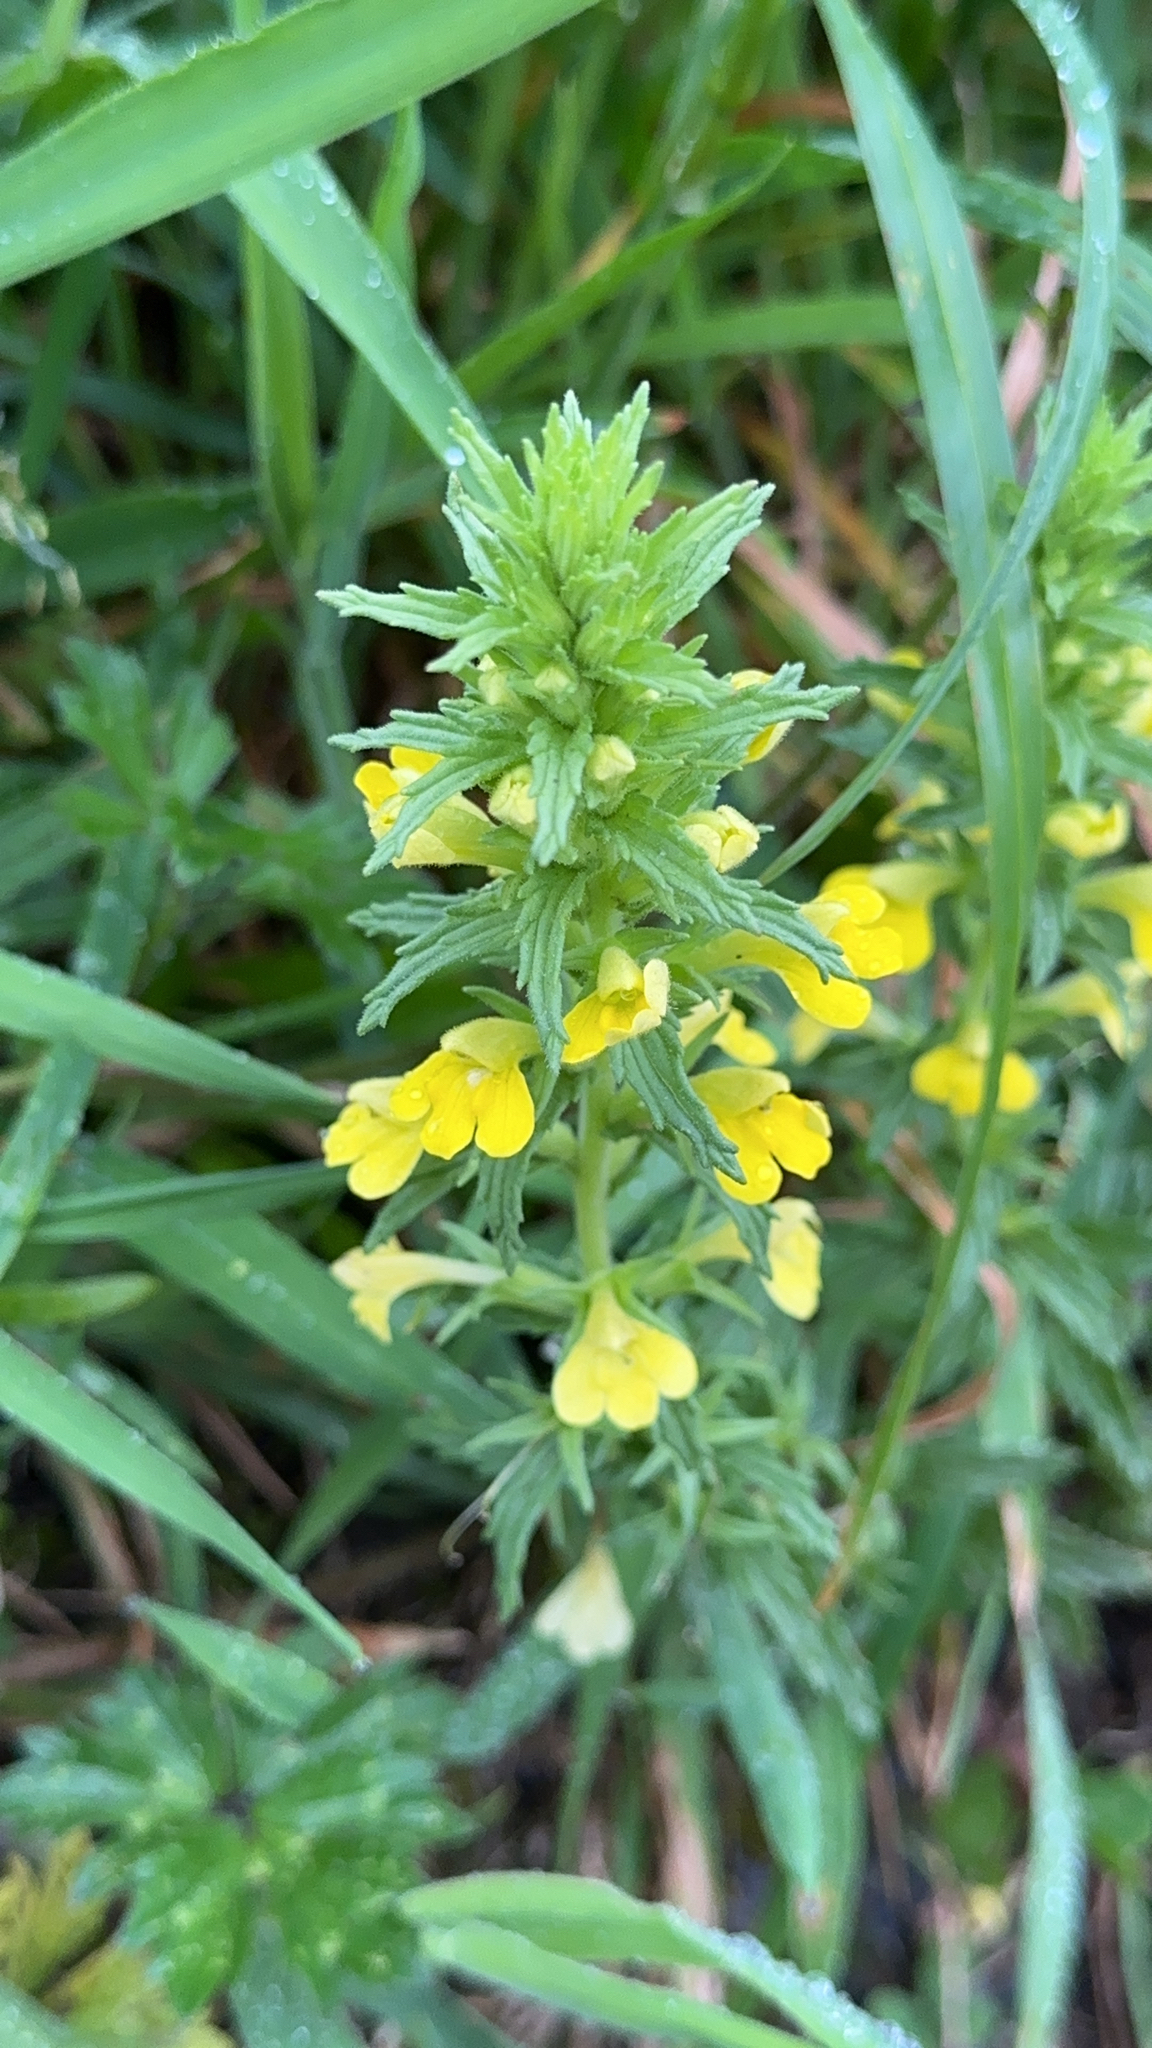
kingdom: Plantae
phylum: Tracheophyta
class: Magnoliopsida
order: Lamiales
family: Orobanchaceae
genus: Bellardia
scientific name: Bellardia viscosa
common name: Sticky parentucellia
